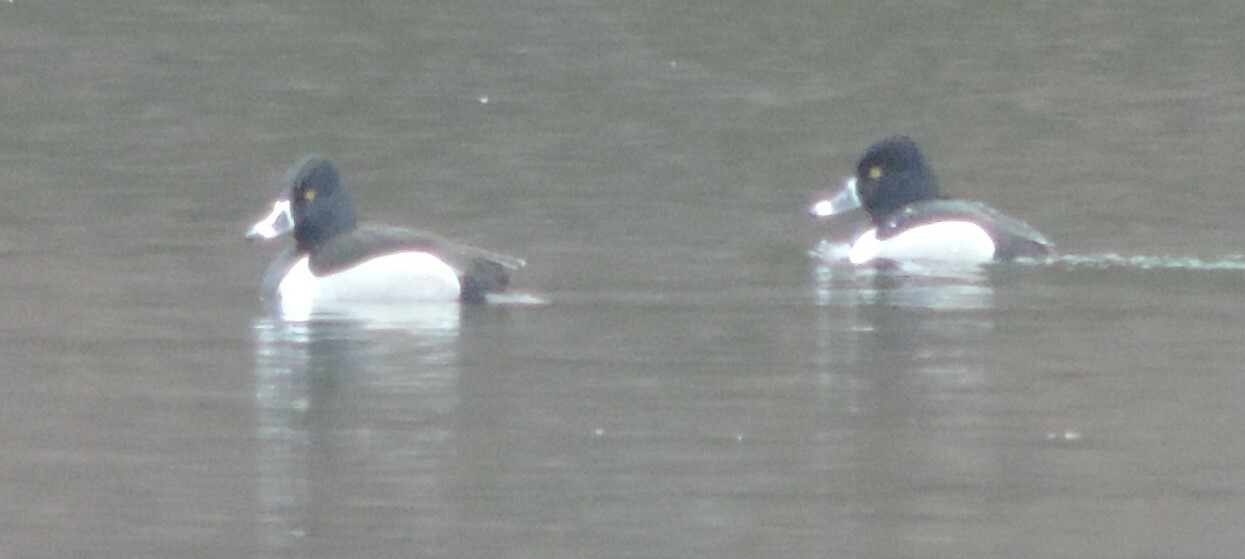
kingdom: Animalia
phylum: Chordata
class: Aves
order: Anseriformes
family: Anatidae
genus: Aythya
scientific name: Aythya collaris
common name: Ring-necked duck
